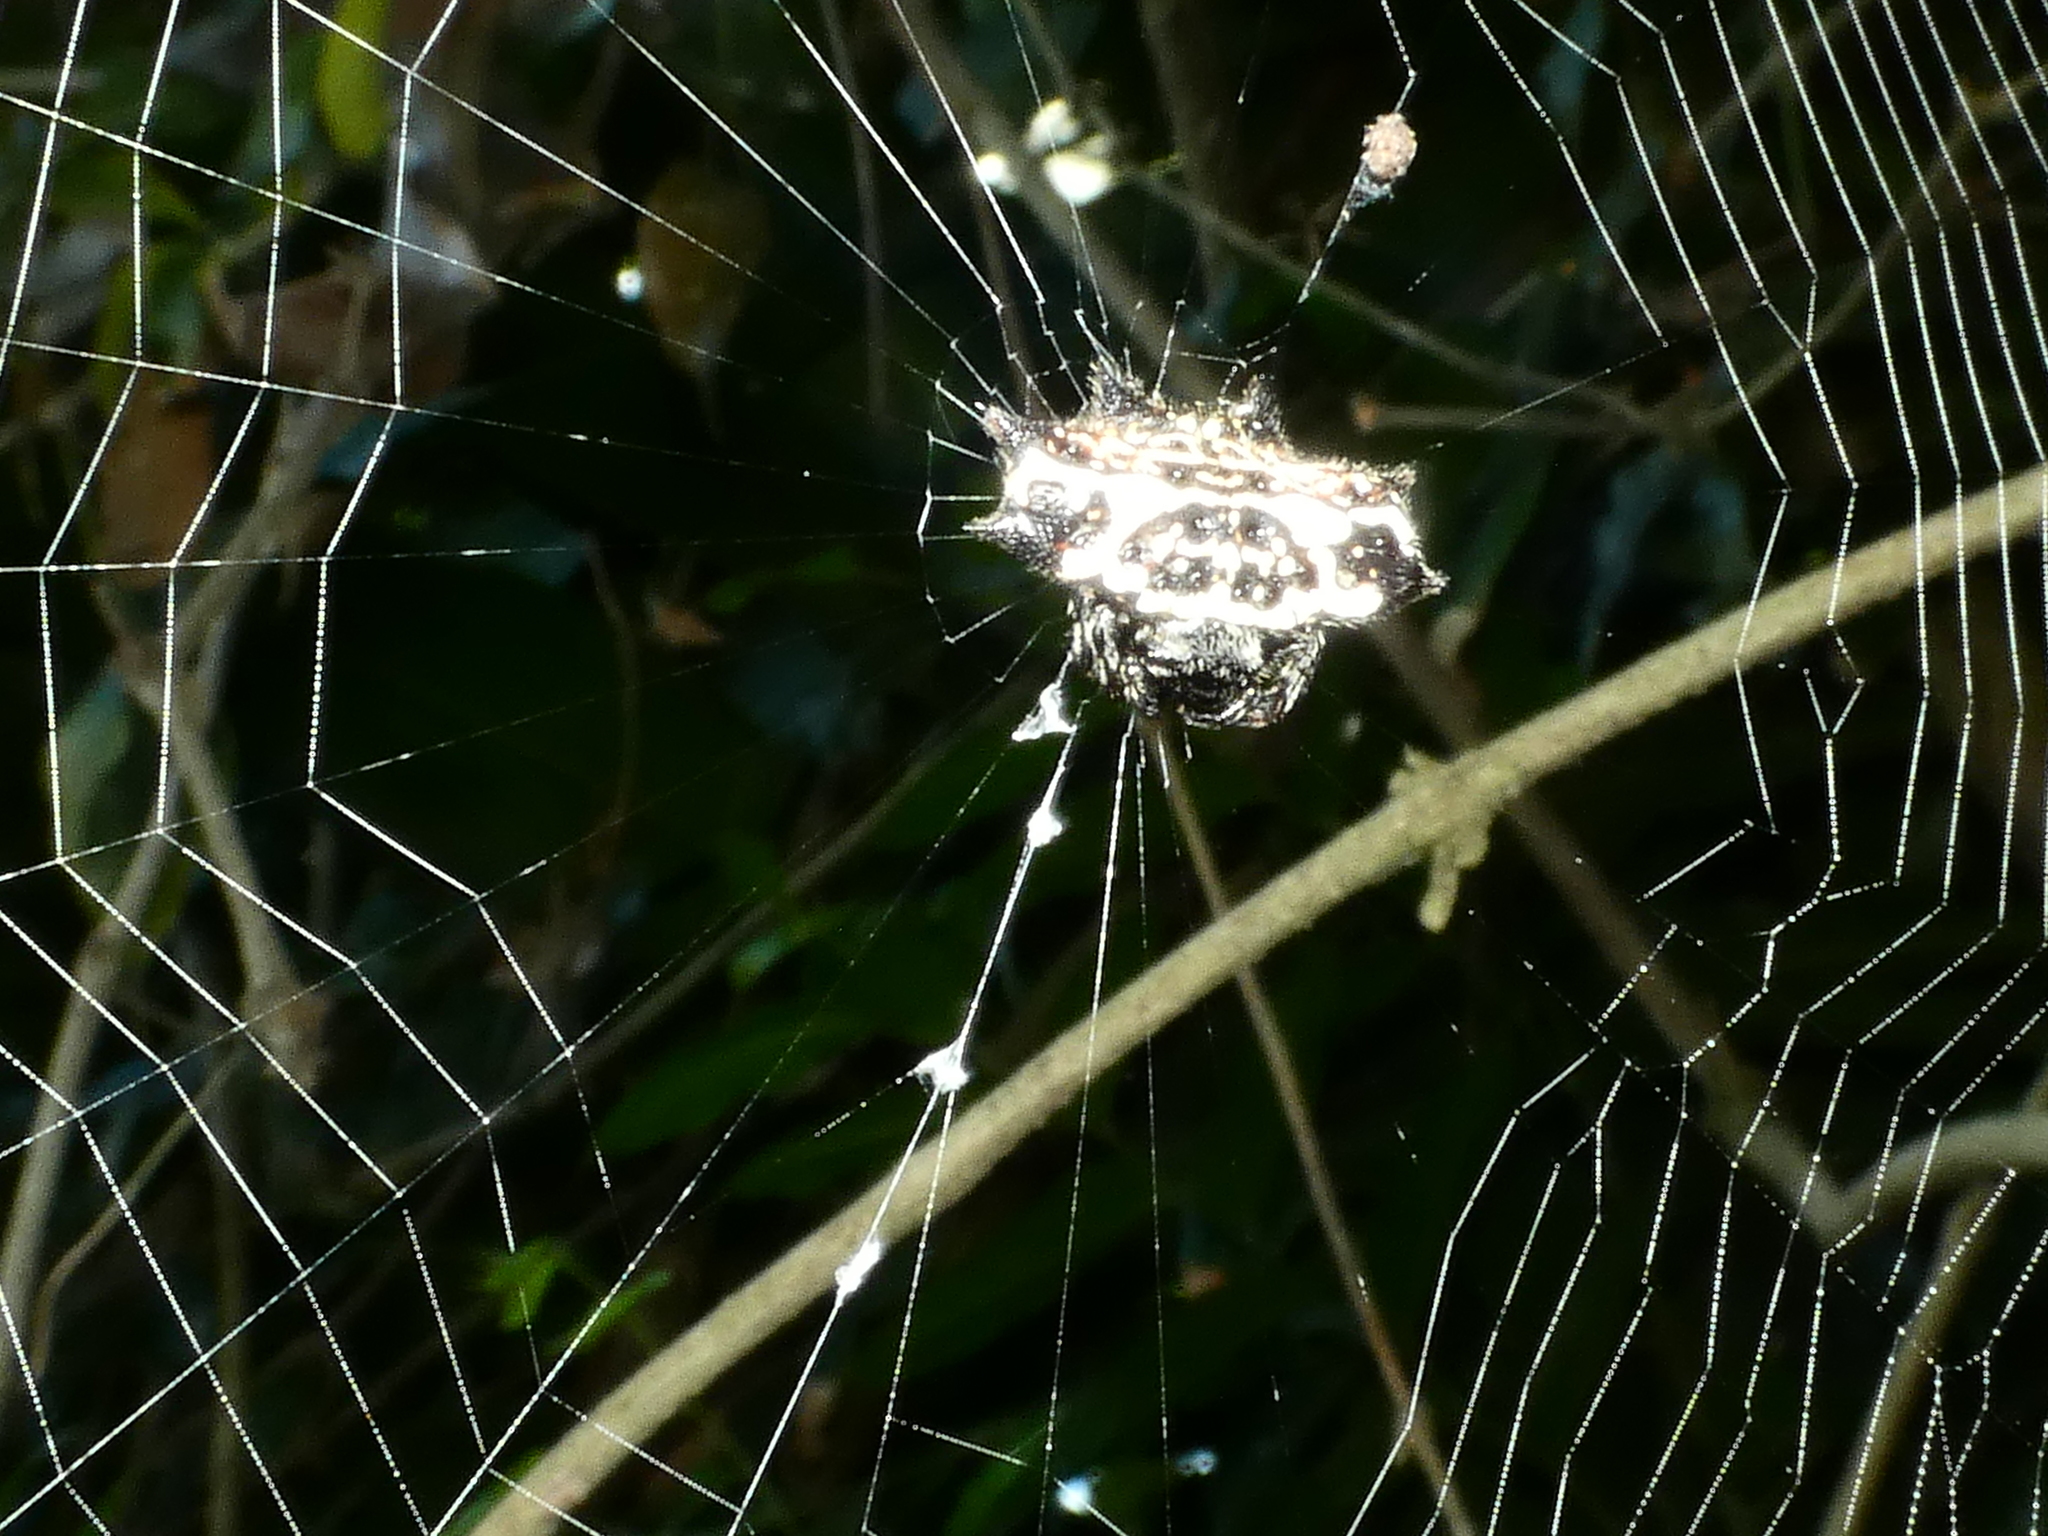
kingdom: Animalia
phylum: Arthropoda
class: Arachnida
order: Araneae
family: Araneidae
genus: Gasteracantha
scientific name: Gasteracantha cancriformis
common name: Orb weavers
